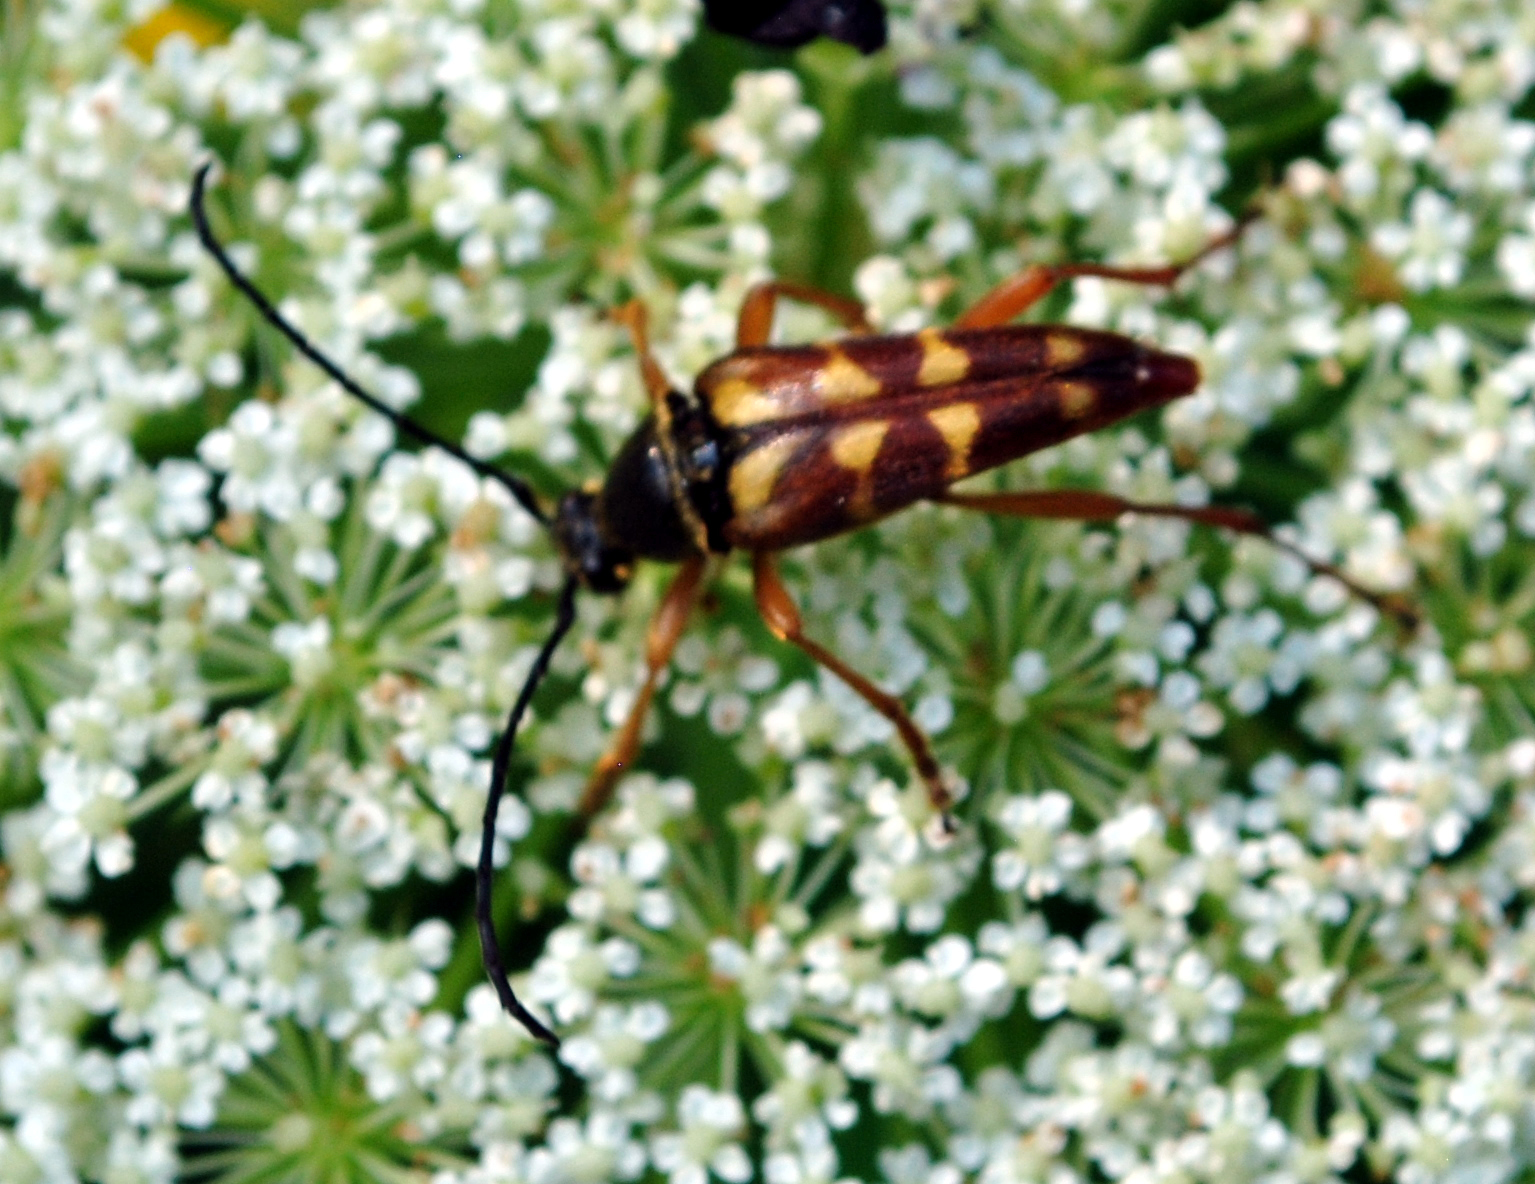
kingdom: Animalia
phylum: Arthropoda
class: Insecta
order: Coleoptera
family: Cerambycidae
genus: Typocerus
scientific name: Typocerus velutinus
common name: Banded longhorn beetle
